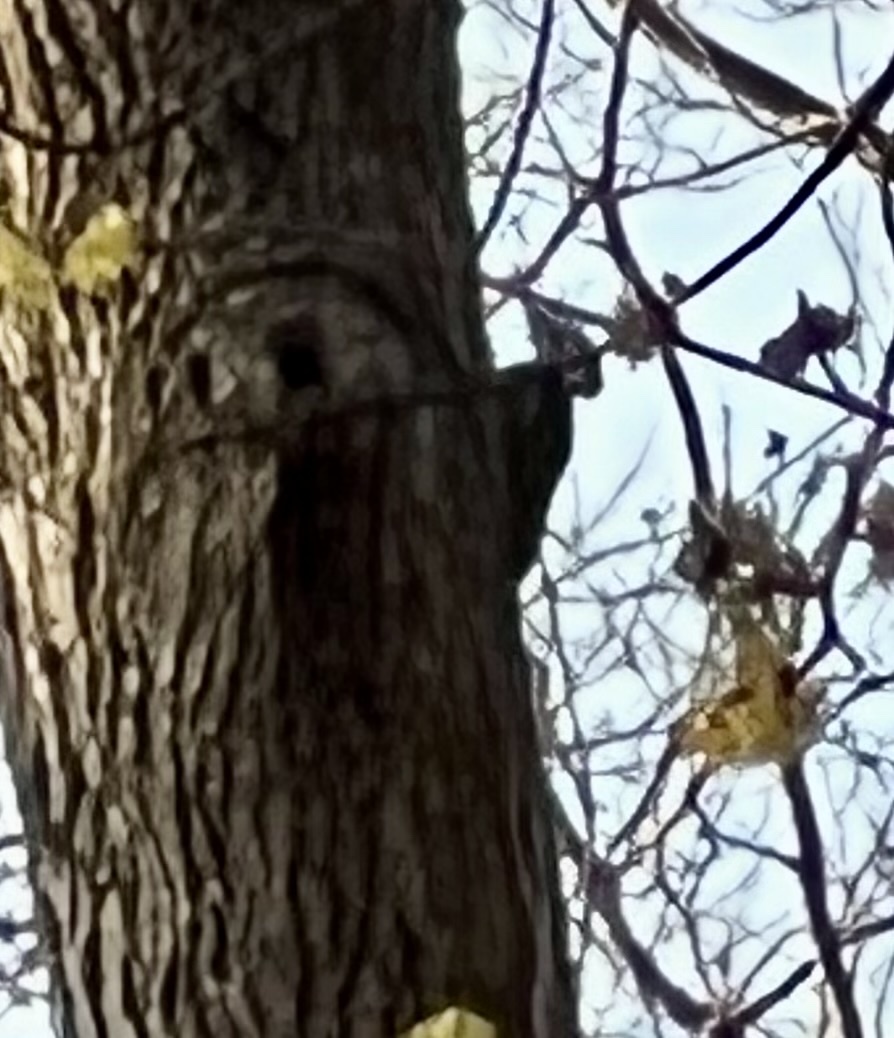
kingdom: Animalia
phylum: Chordata
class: Aves
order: Piciformes
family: Picidae
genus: Dryocopus
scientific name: Dryocopus pileatus
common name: Pileated woodpecker
